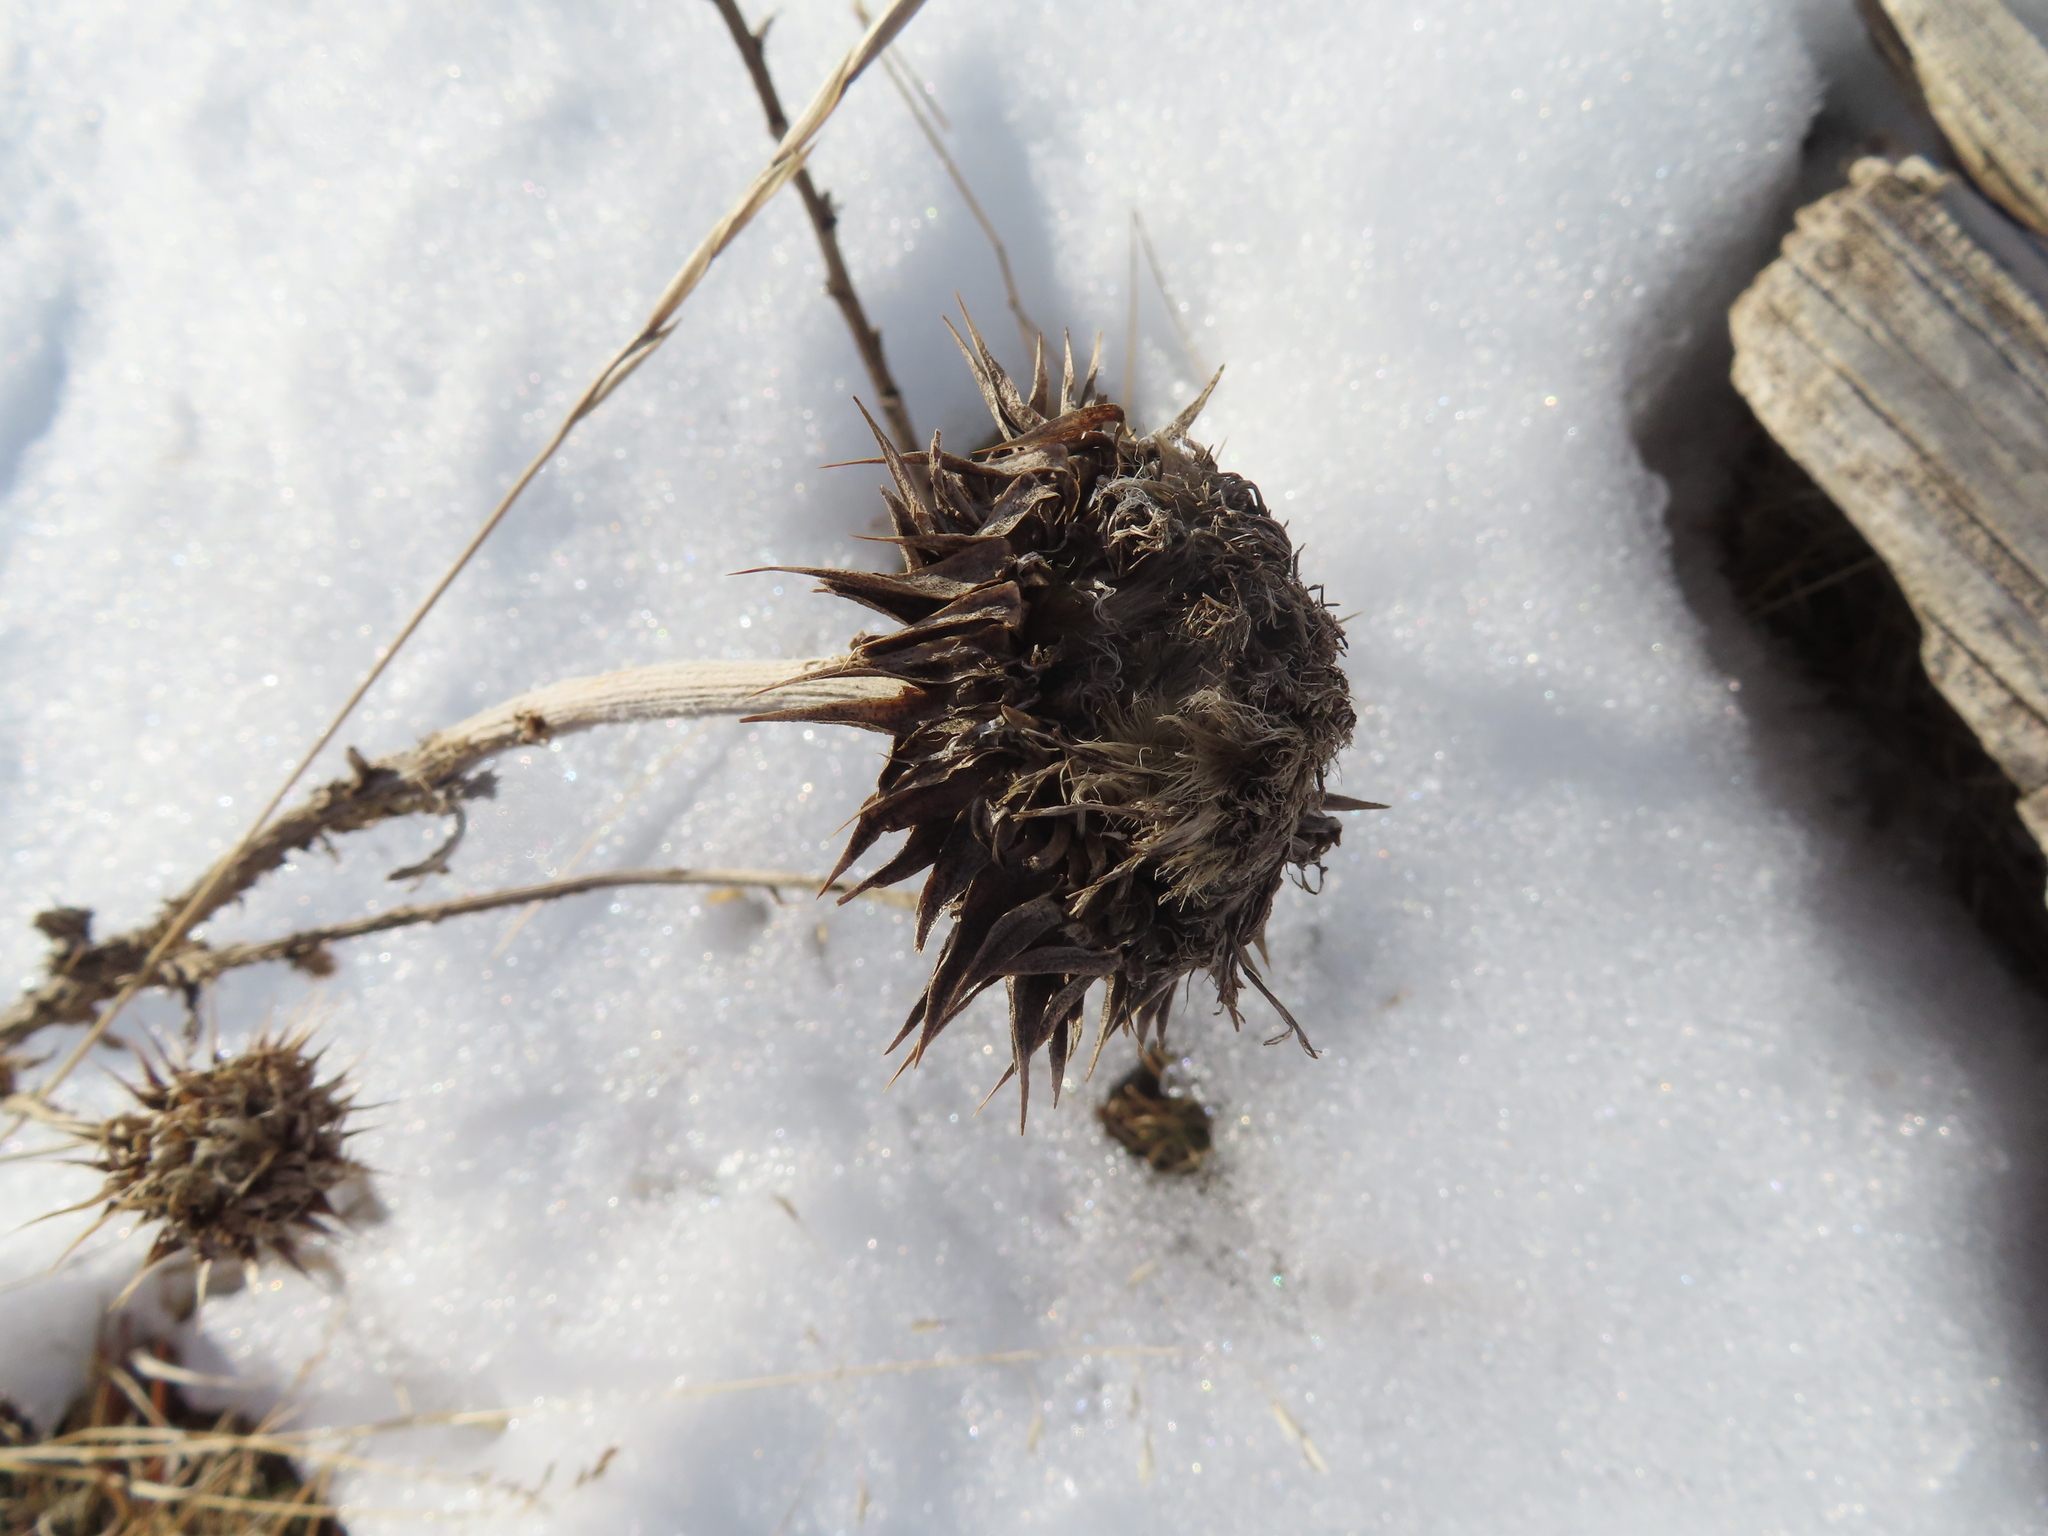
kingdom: Plantae
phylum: Tracheophyta
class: Magnoliopsida
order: Asterales
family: Asteraceae
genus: Carduus
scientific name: Carduus nutans
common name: Musk thistle
